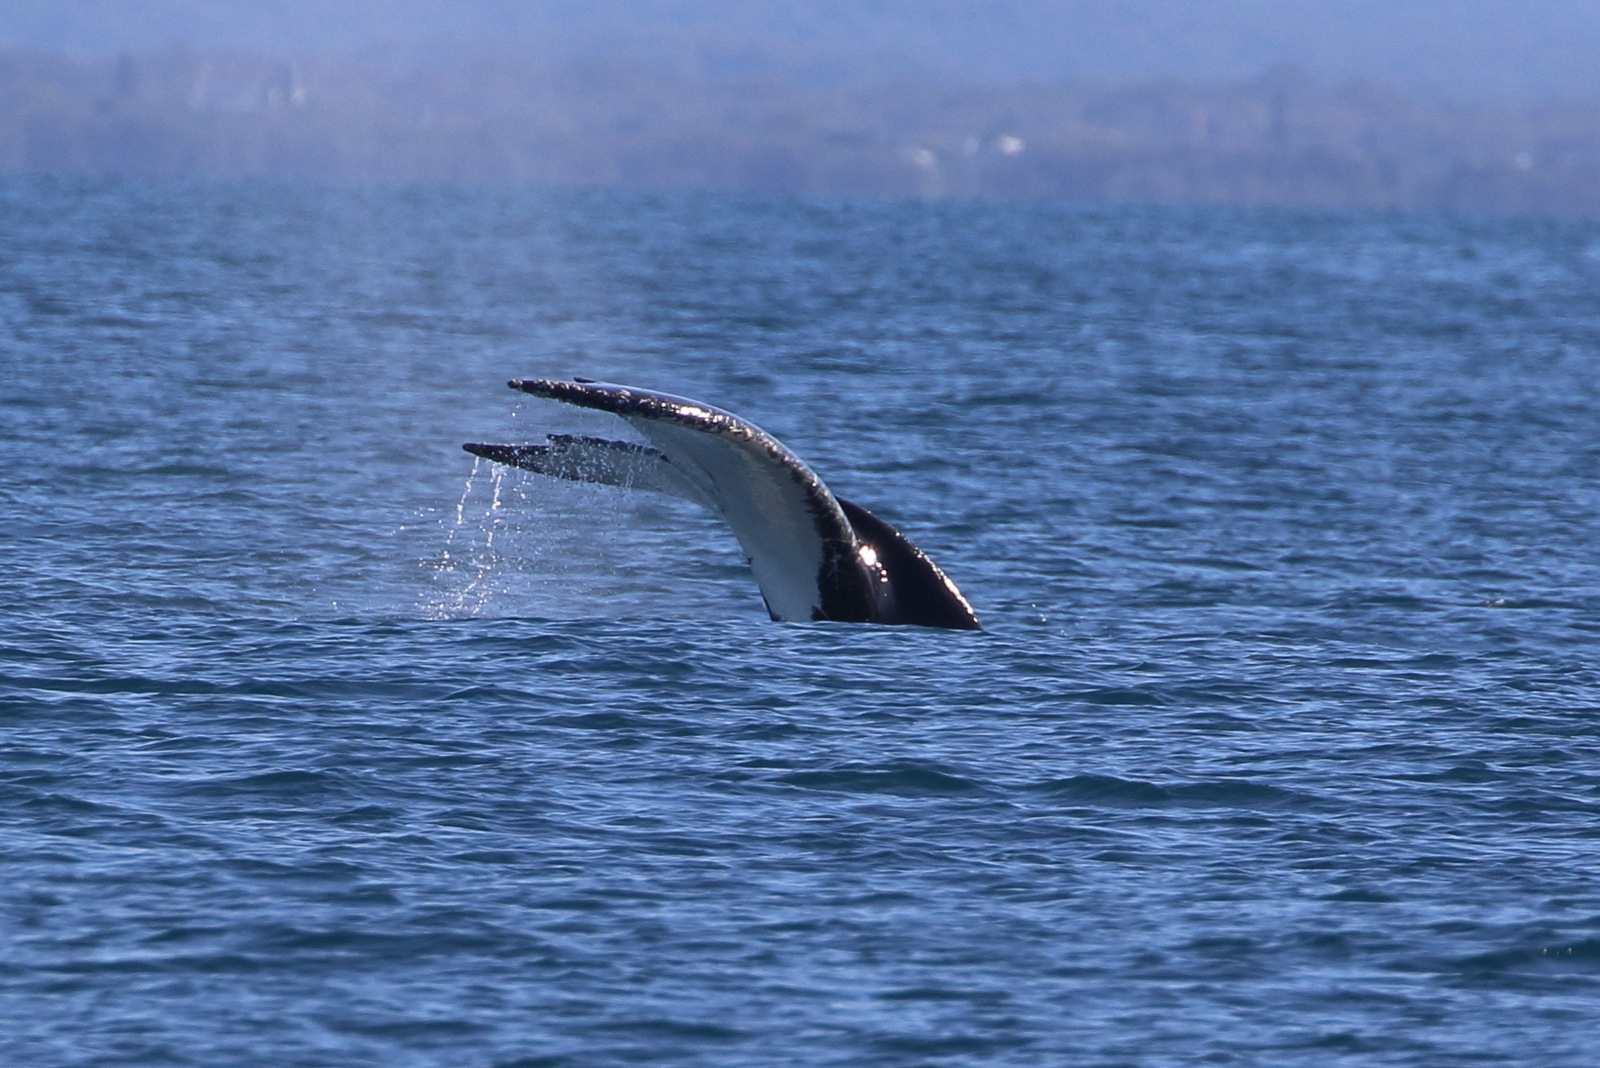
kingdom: Animalia
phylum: Chordata
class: Mammalia
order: Cetacea
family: Balaenopteridae
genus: Megaptera
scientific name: Megaptera novaeangliae
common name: Humpback whale
